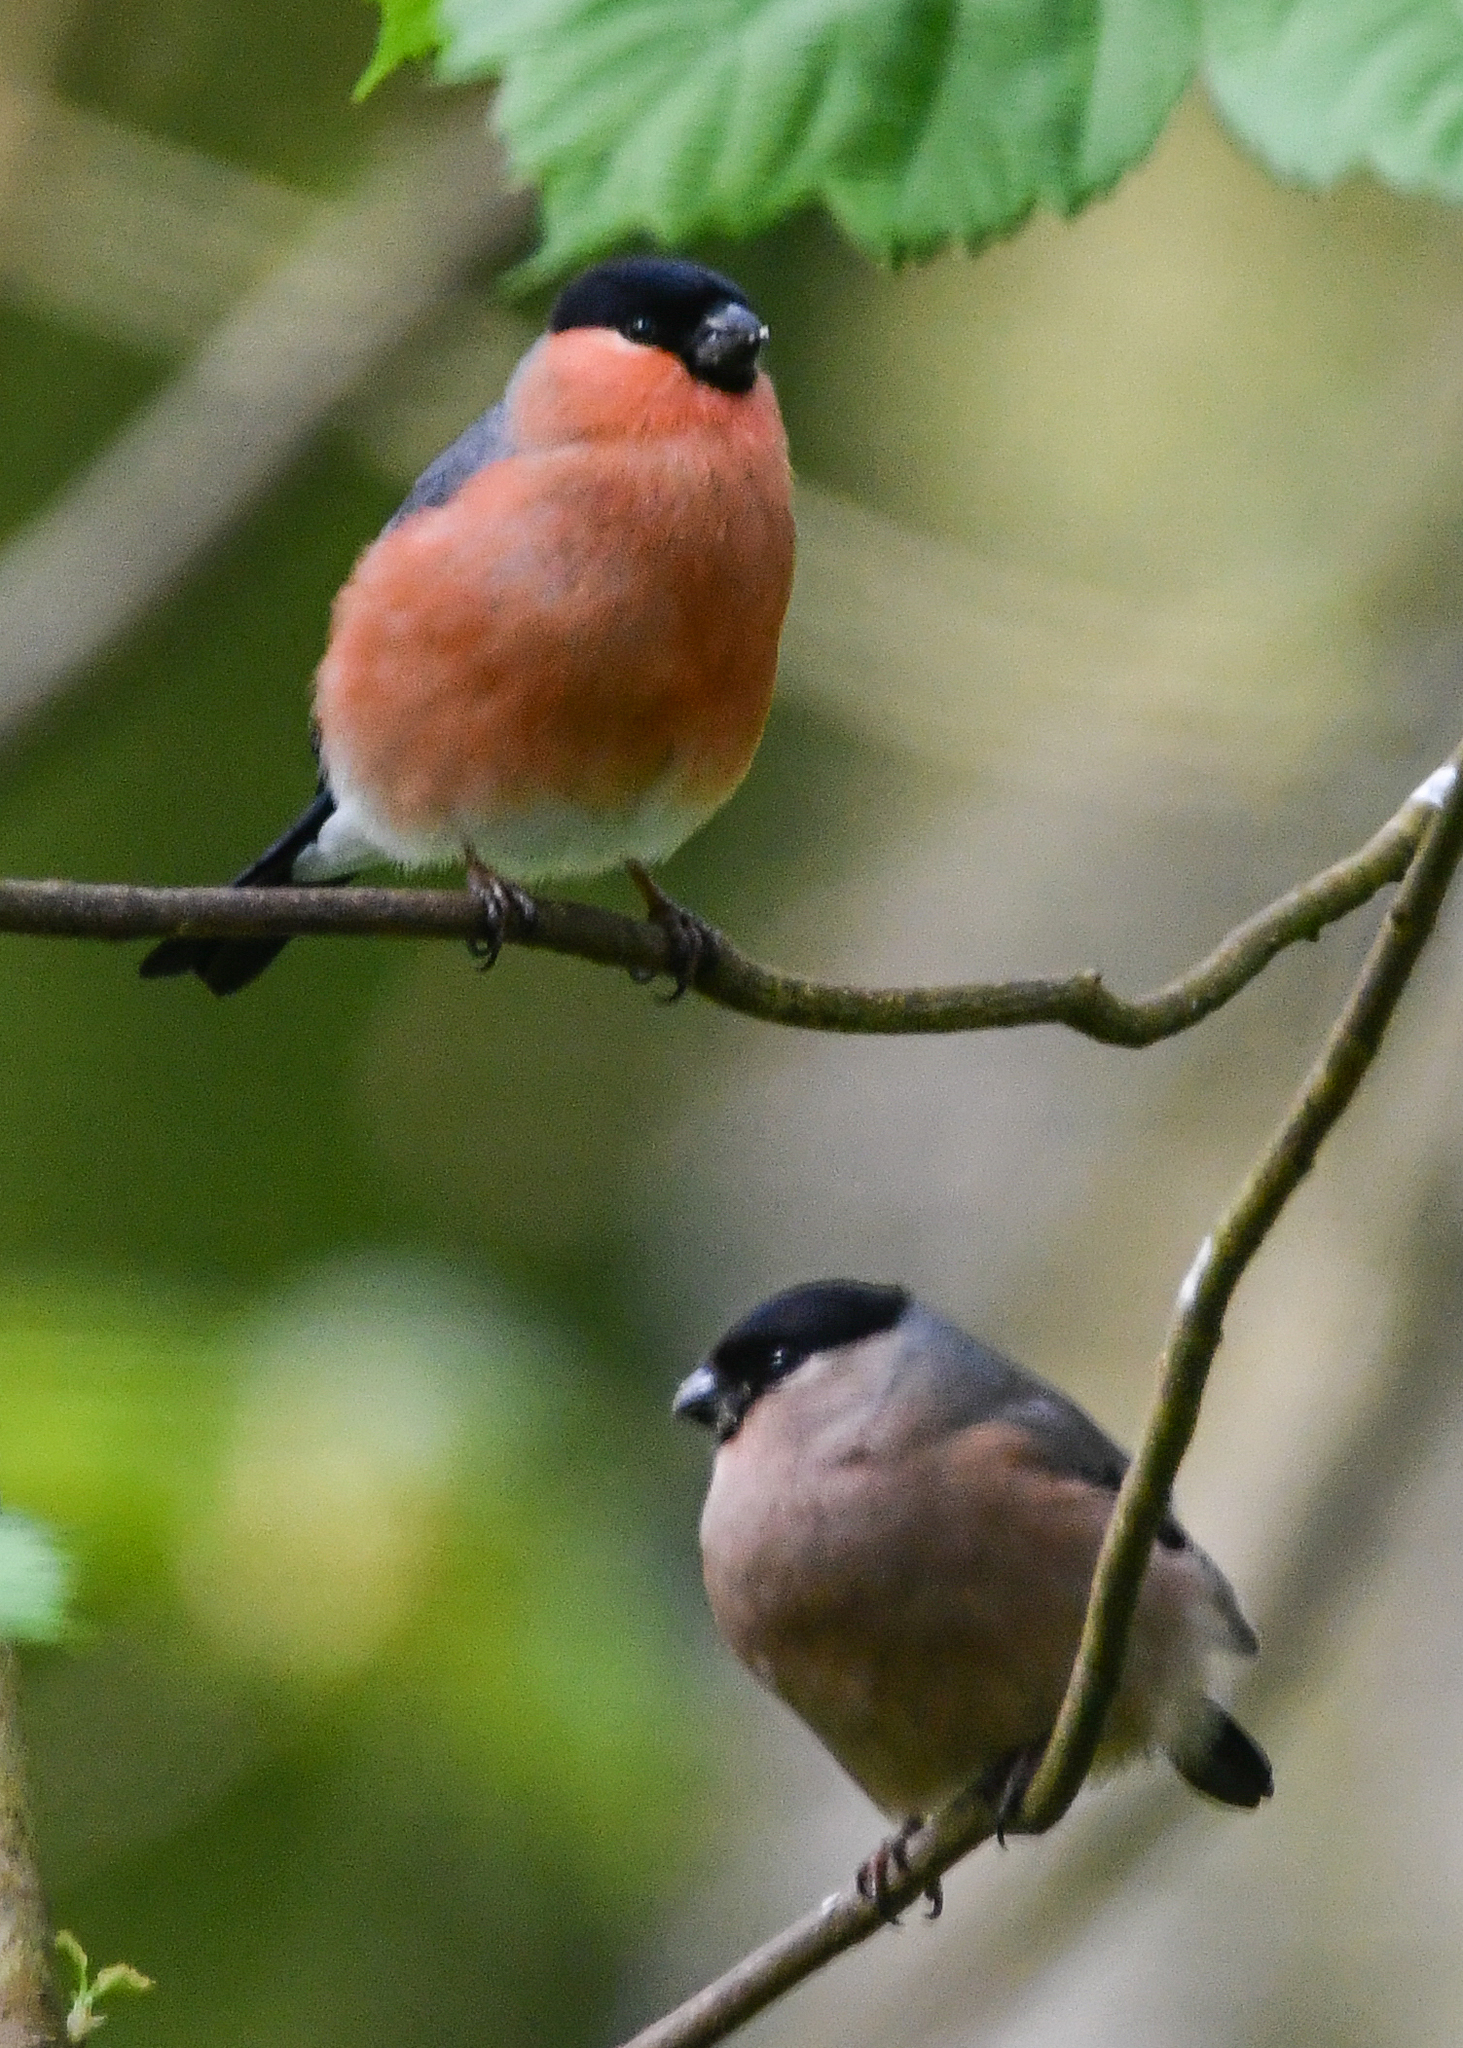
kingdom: Animalia
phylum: Chordata
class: Aves
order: Passeriformes
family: Fringillidae
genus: Pyrrhula
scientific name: Pyrrhula pyrrhula
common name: Eurasian bullfinch
